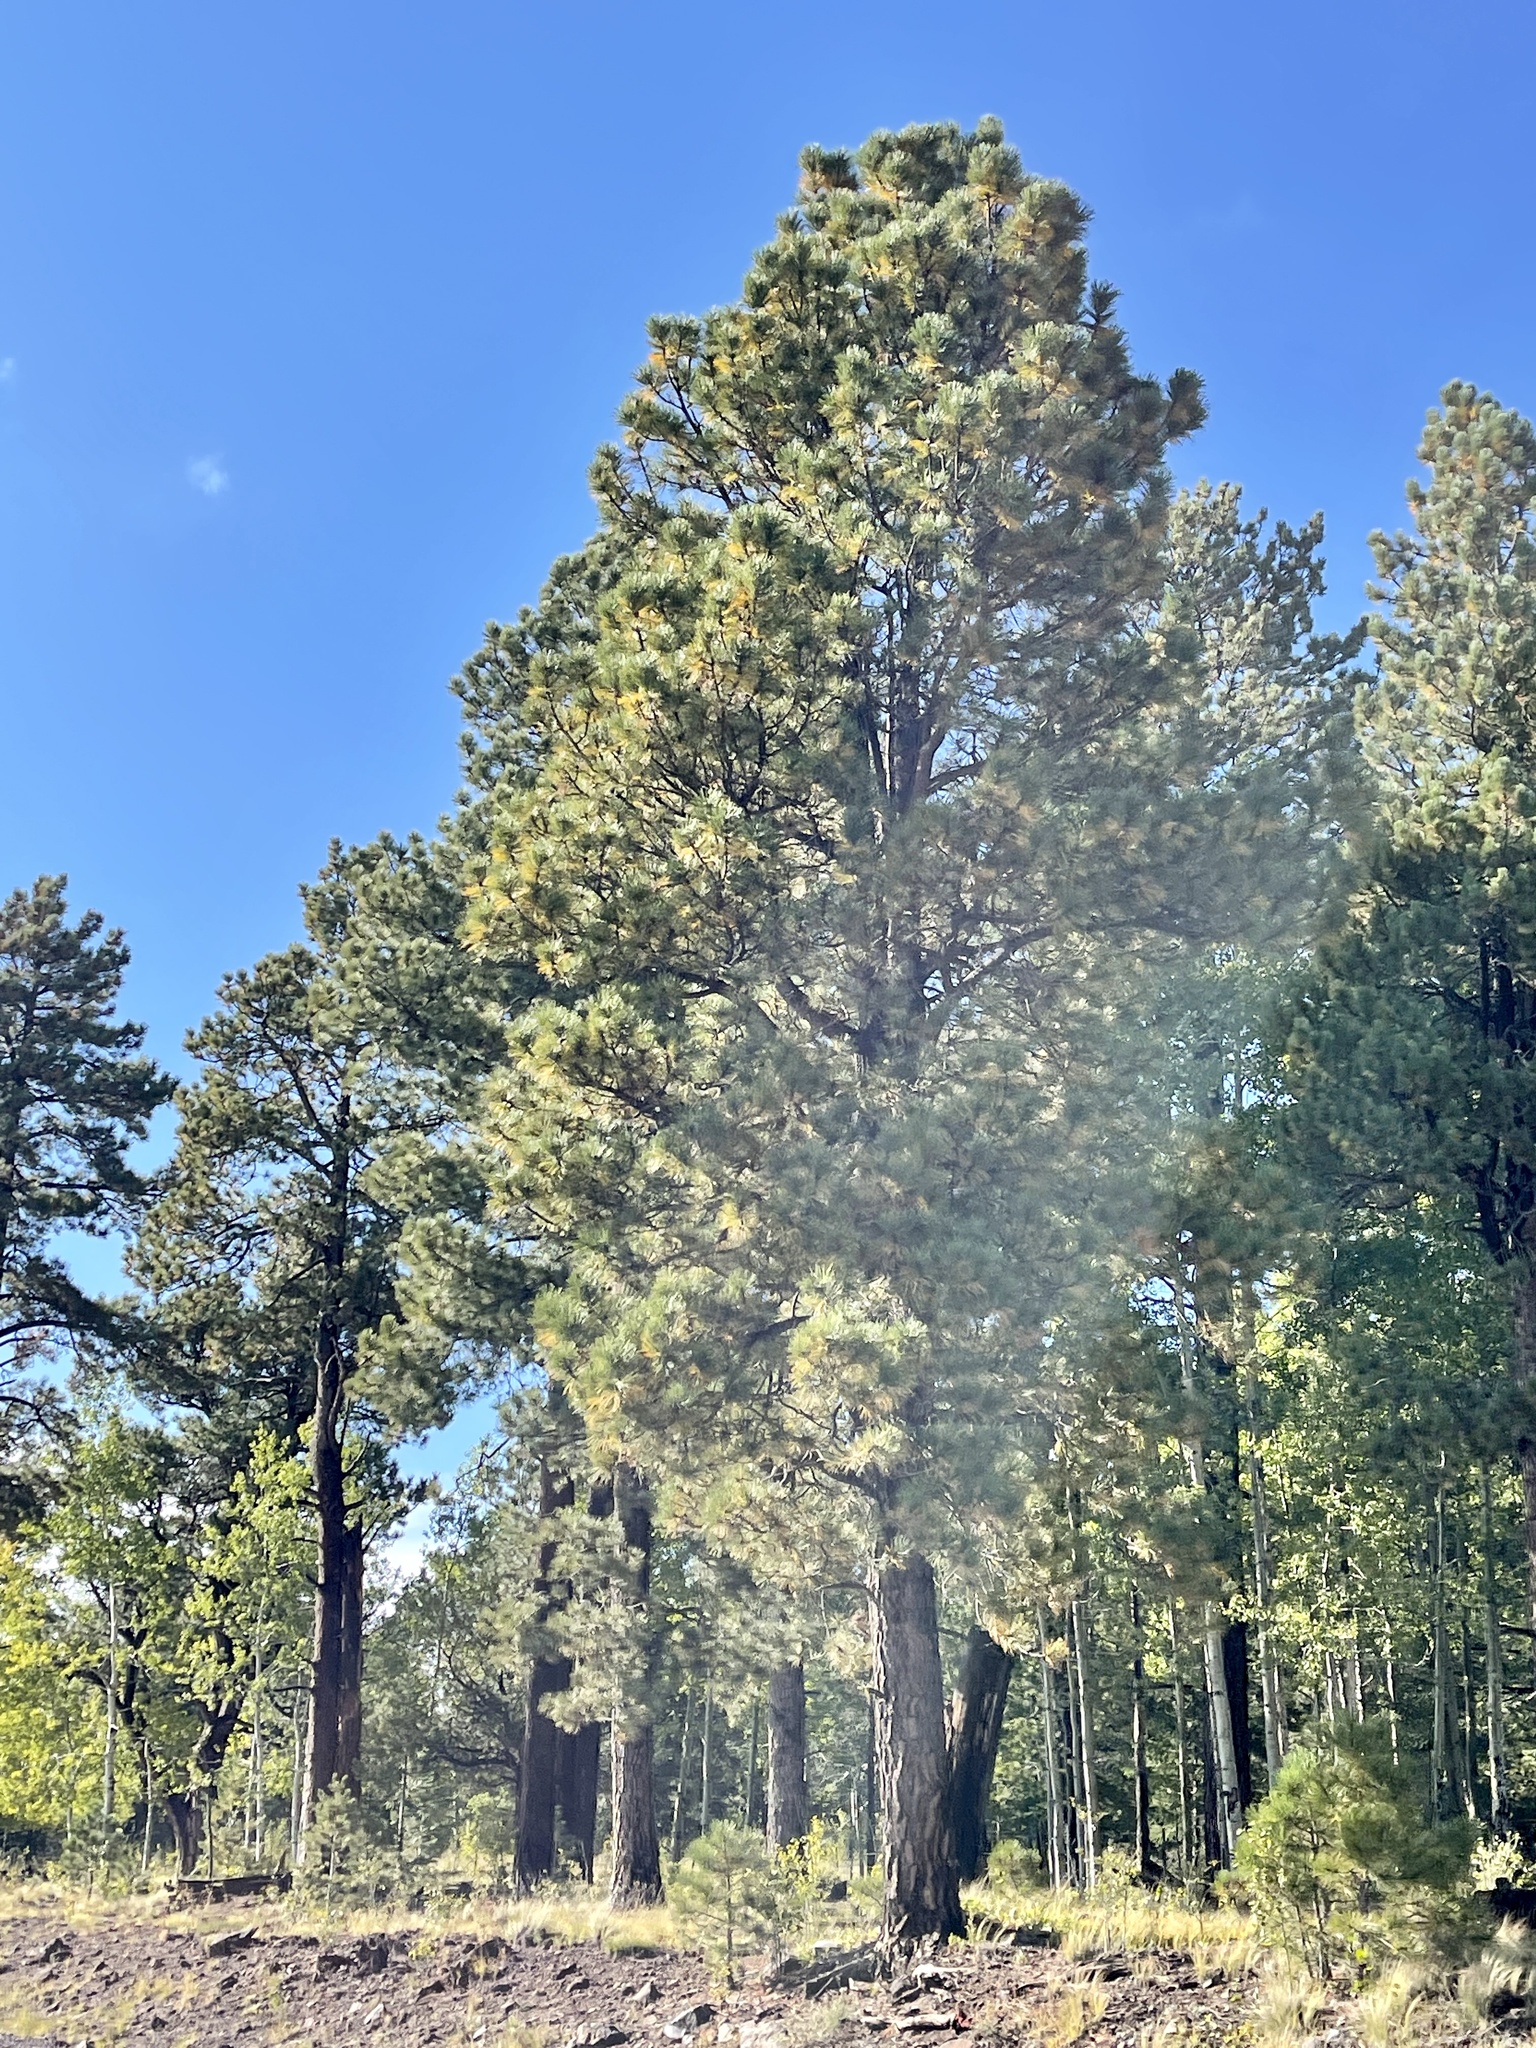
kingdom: Plantae
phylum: Tracheophyta
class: Pinopsida
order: Pinales
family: Pinaceae
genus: Pinus
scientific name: Pinus ponderosa
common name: Western yellow-pine
